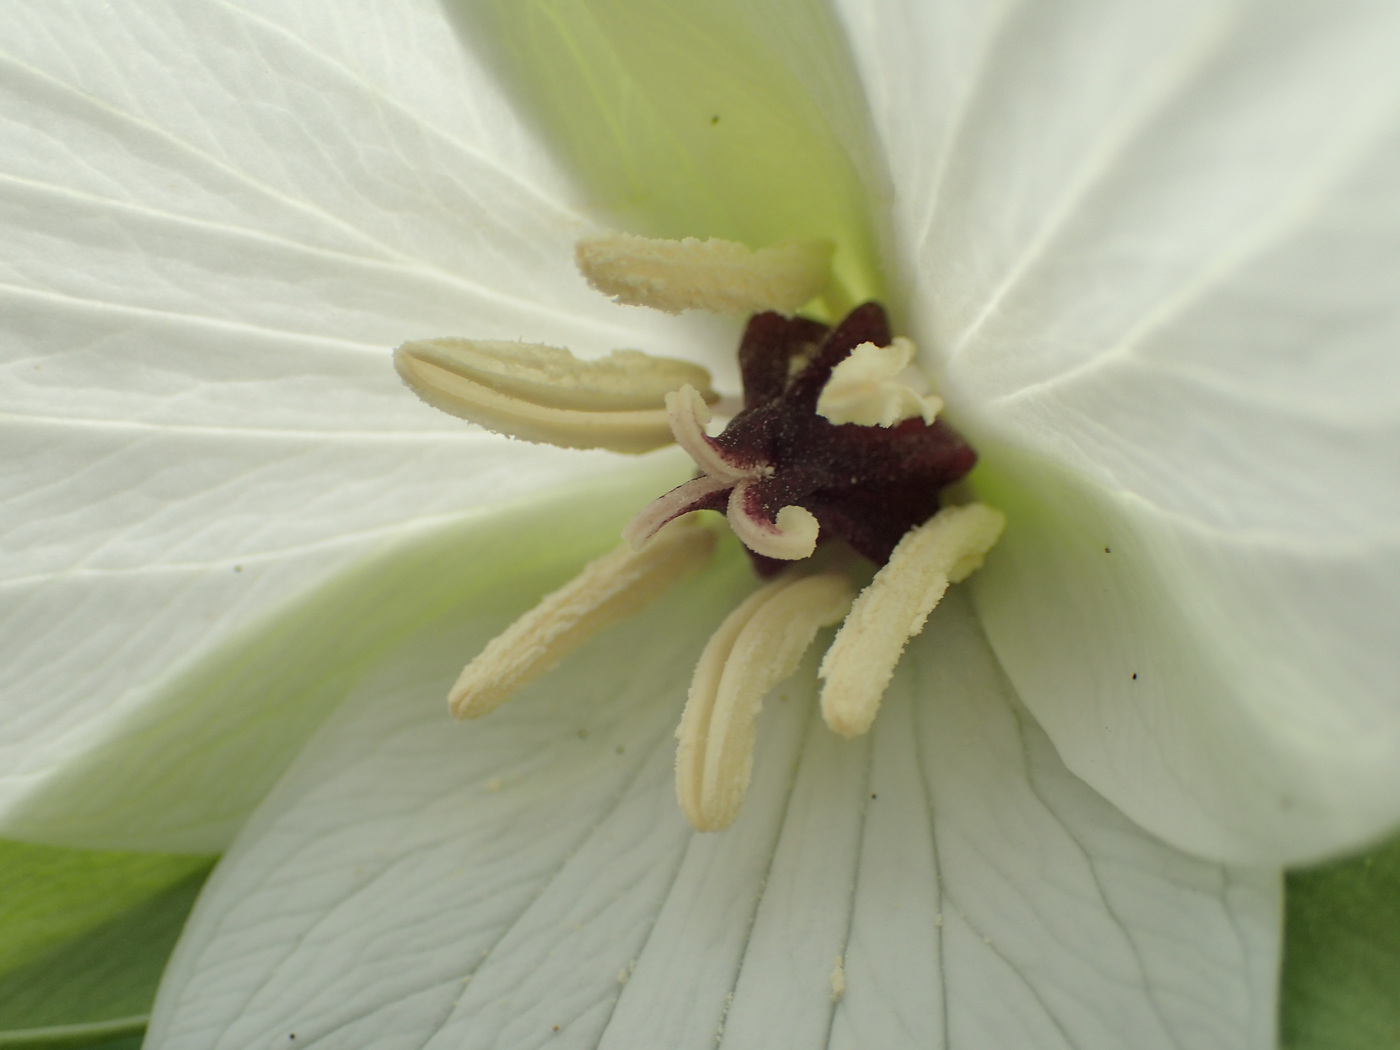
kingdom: Plantae
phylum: Tracheophyta
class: Liliopsida
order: Liliales
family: Melanthiaceae
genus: Trillium
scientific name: Trillium simile
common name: Confusing trillium
